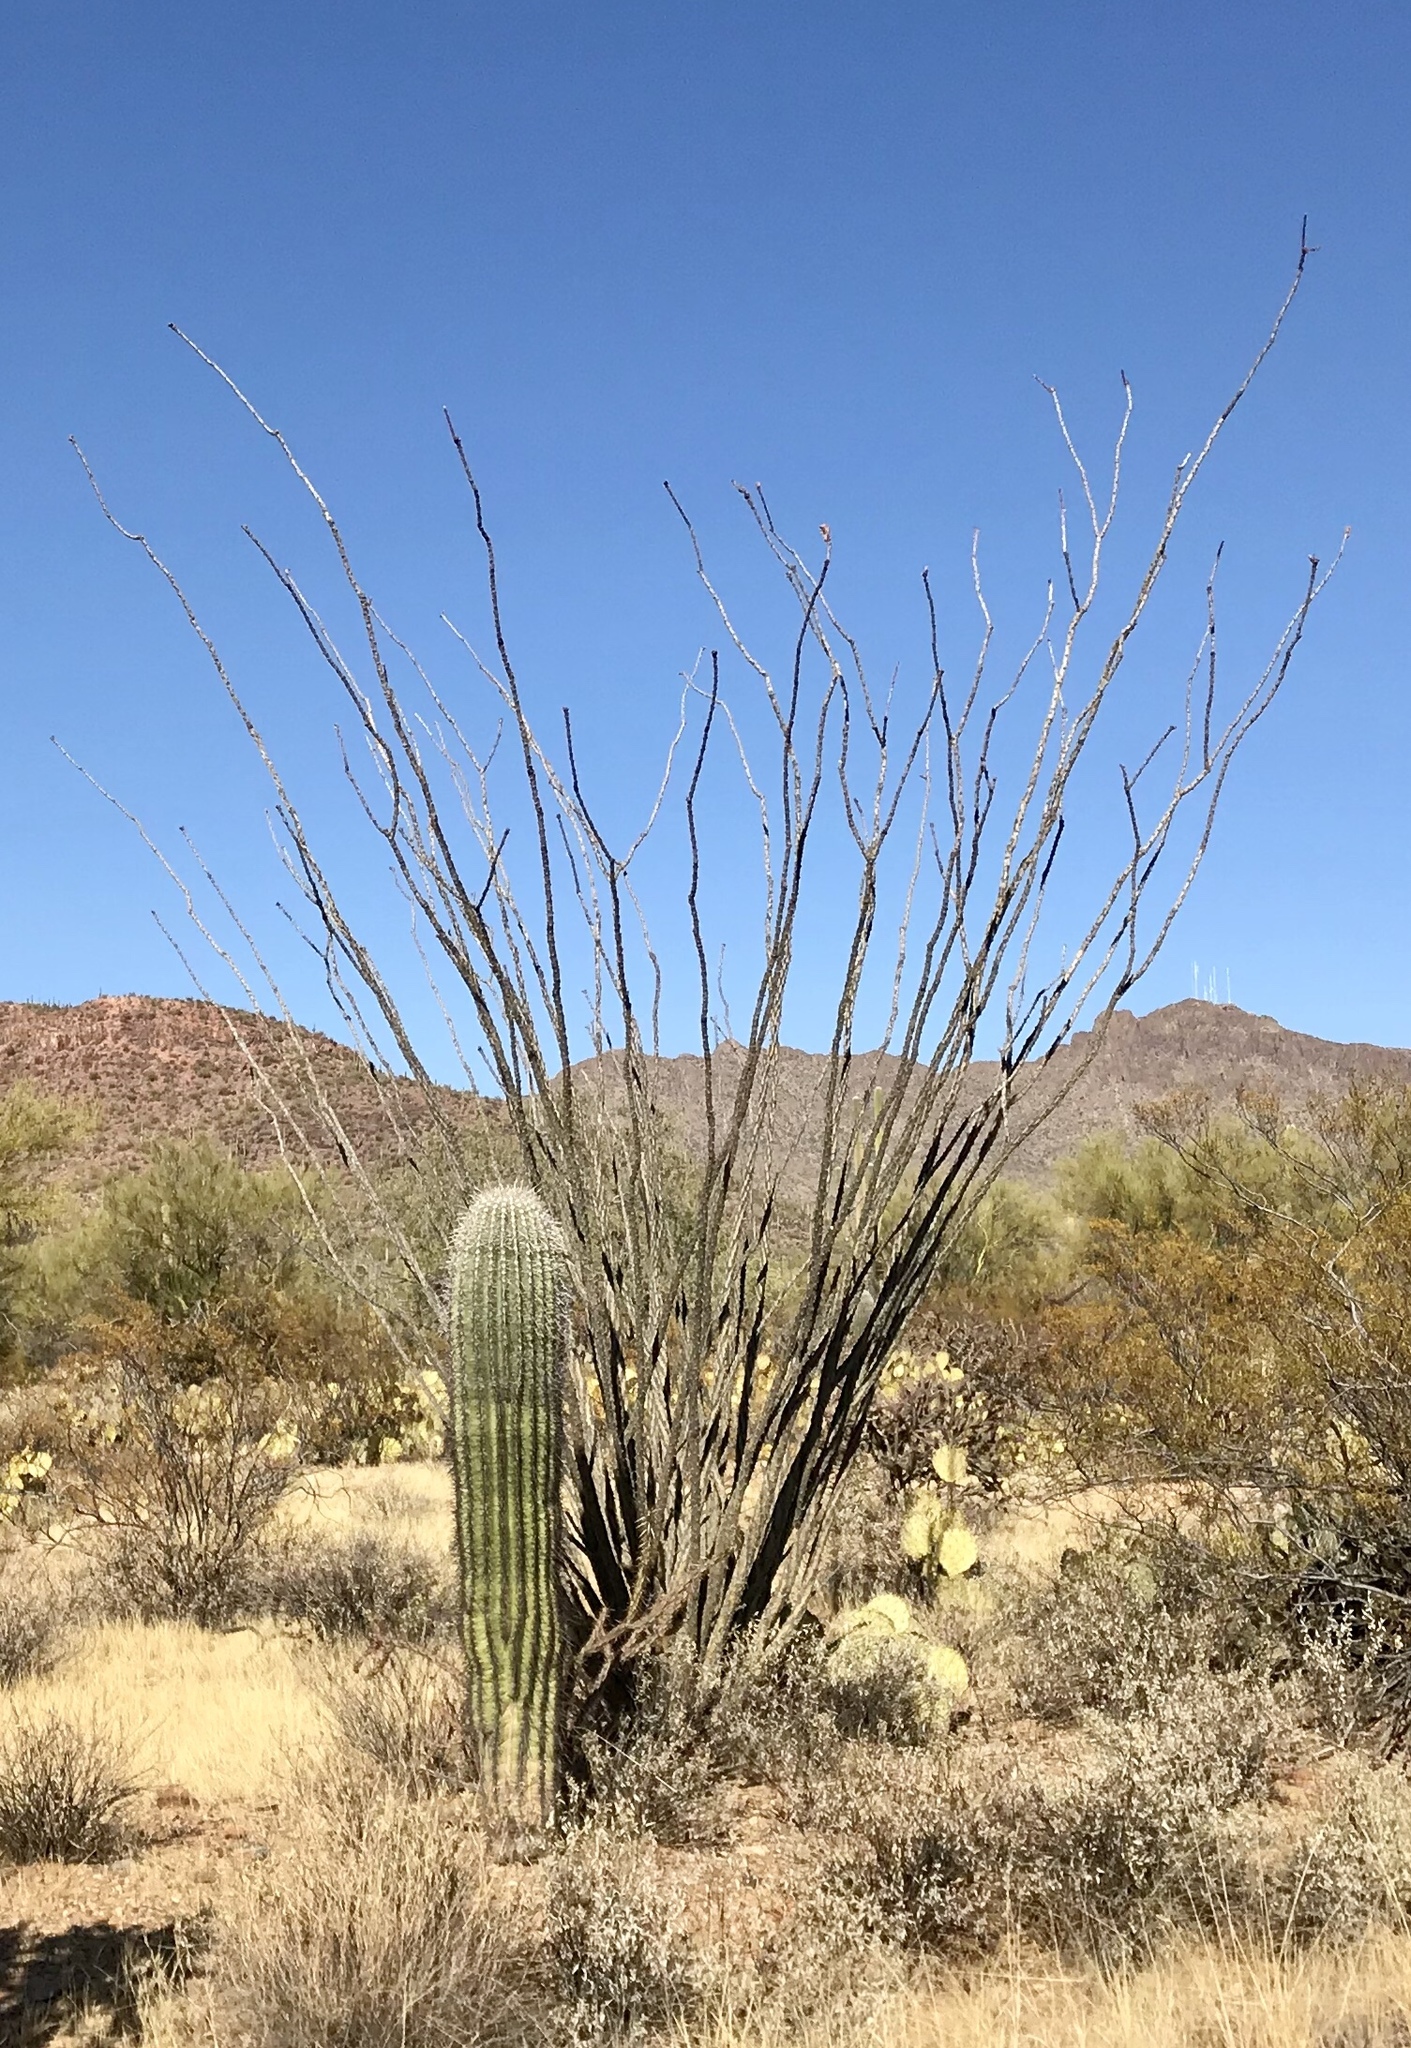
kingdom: Plantae
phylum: Tracheophyta
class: Magnoliopsida
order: Caryophyllales
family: Cactaceae
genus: Carnegiea
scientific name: Carnegiea gigantea
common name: Saguaro
